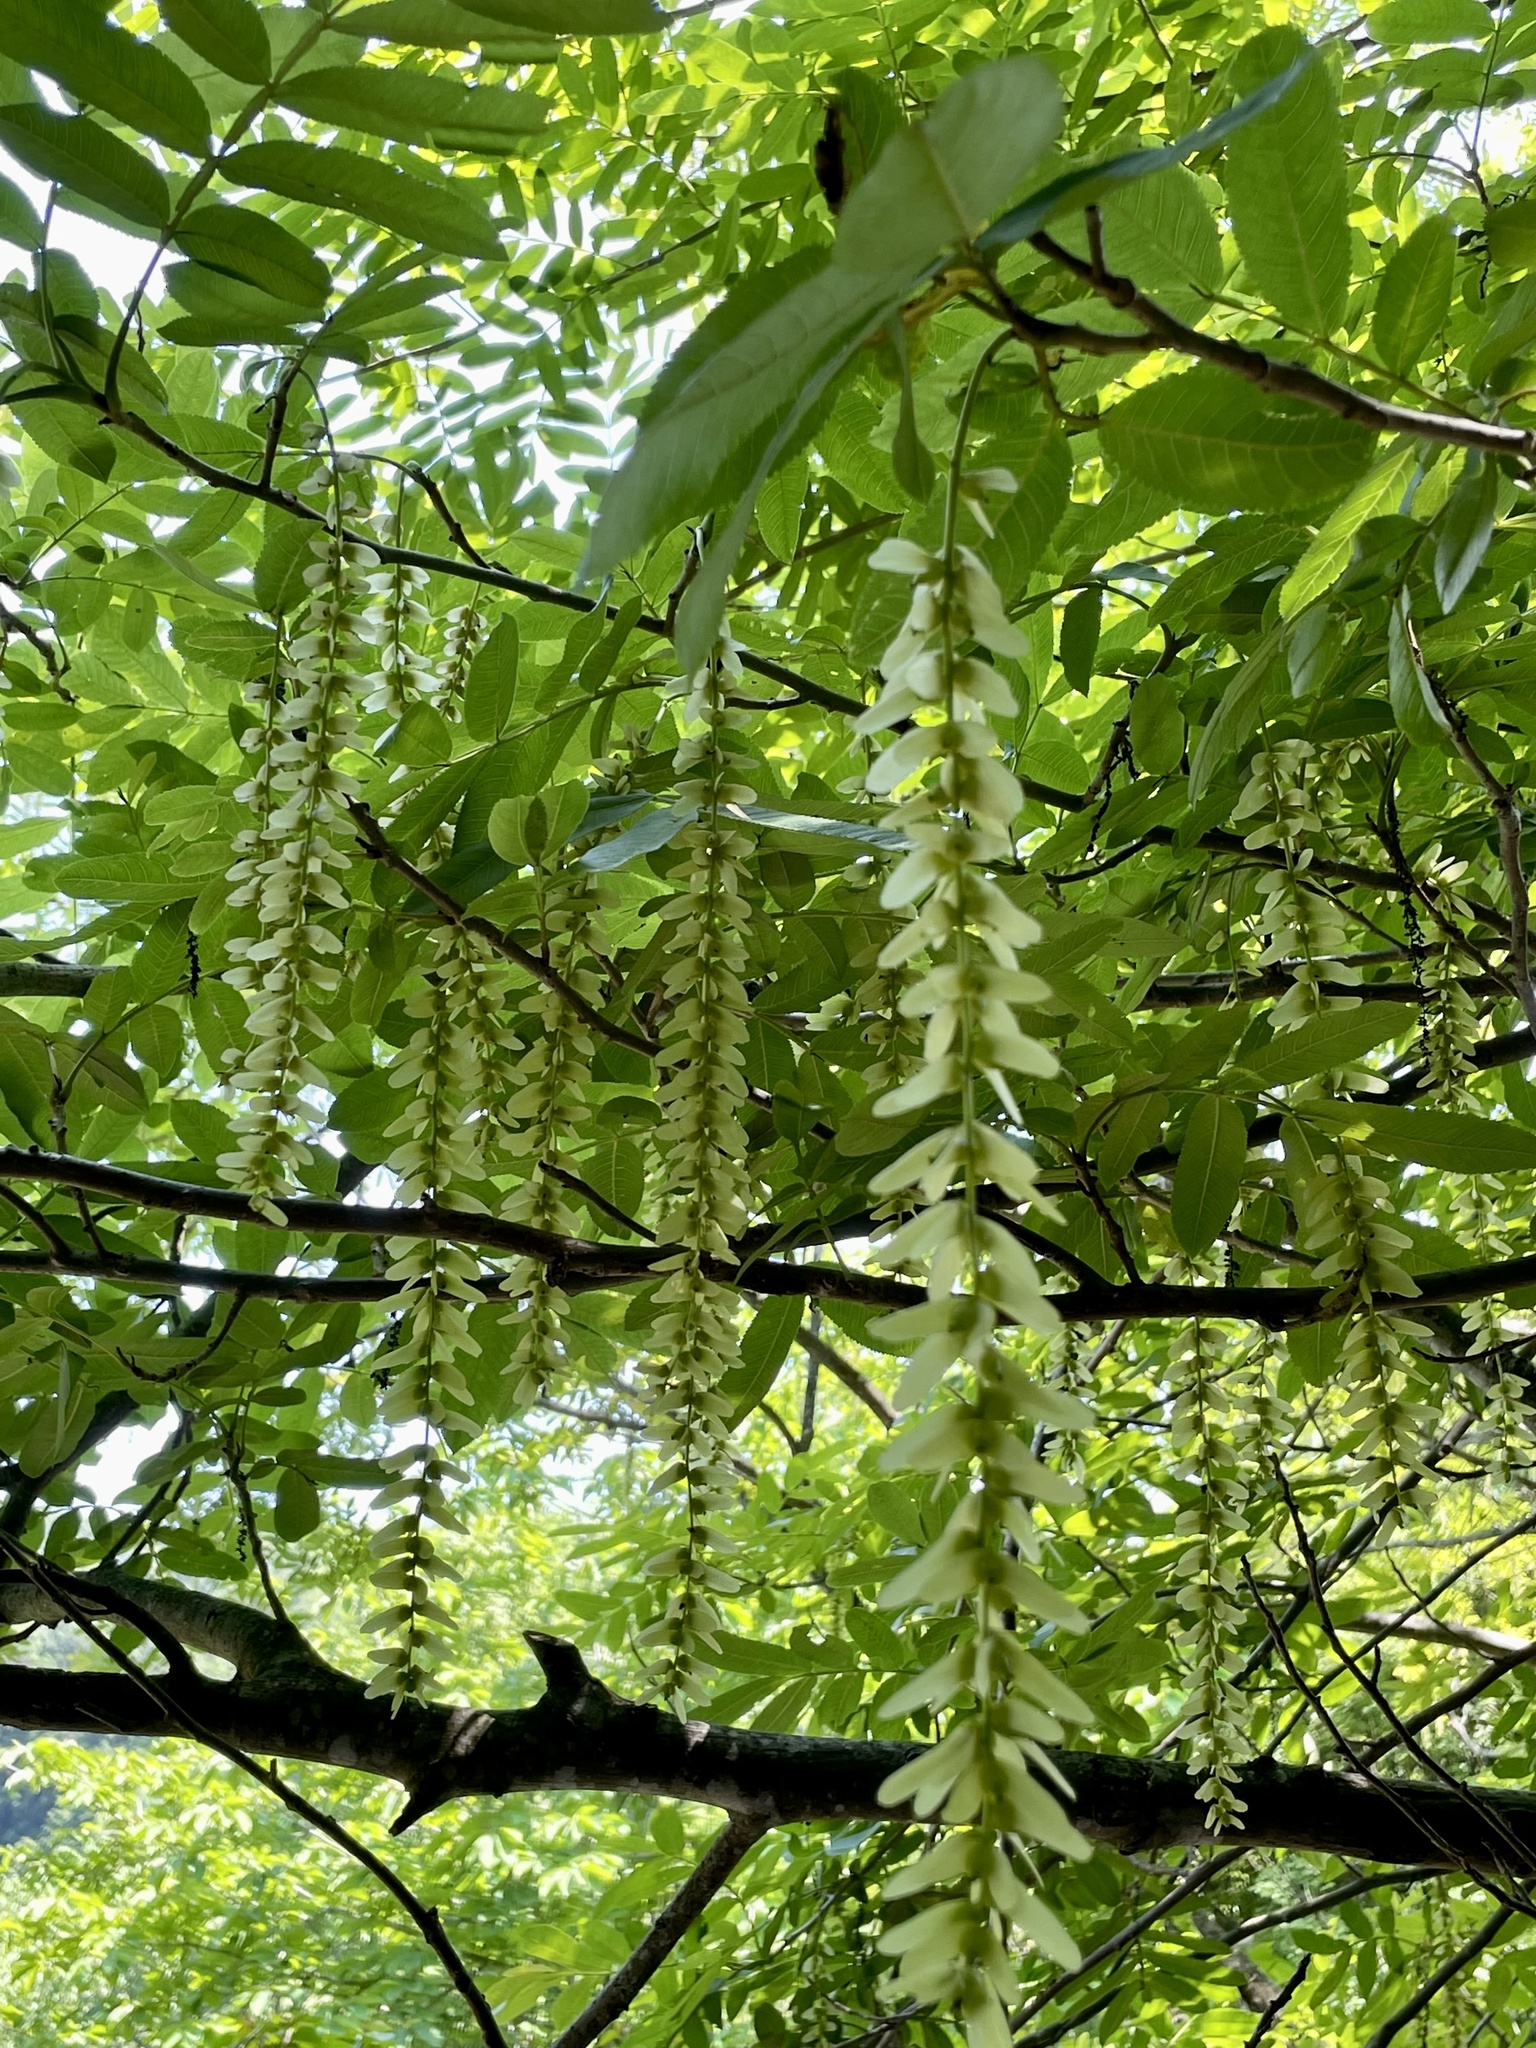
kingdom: Plantae
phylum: Tracheophyta
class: Magnoliopsida
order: Fagales
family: Juglandaceae
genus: Pterocarya
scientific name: Pterocarya stenoptera
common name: Chinese wingnut
